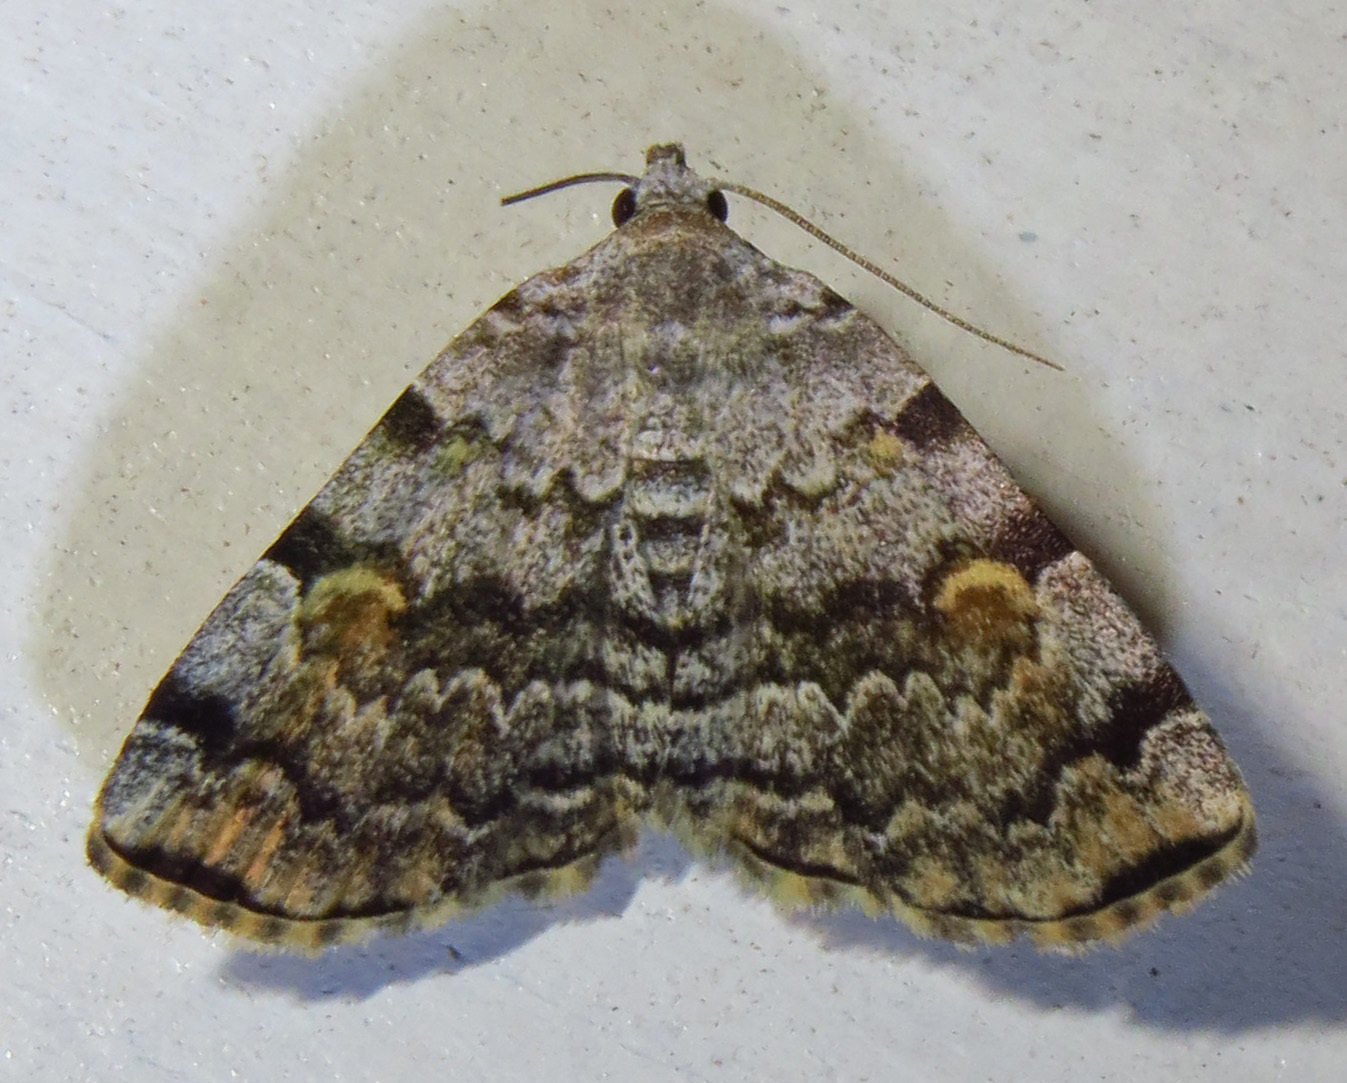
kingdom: Animalia
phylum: Arthropoda
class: Insecta
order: Lepidoptera
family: Erebidae
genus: Idia
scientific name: Idia americalis
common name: American idia moth
